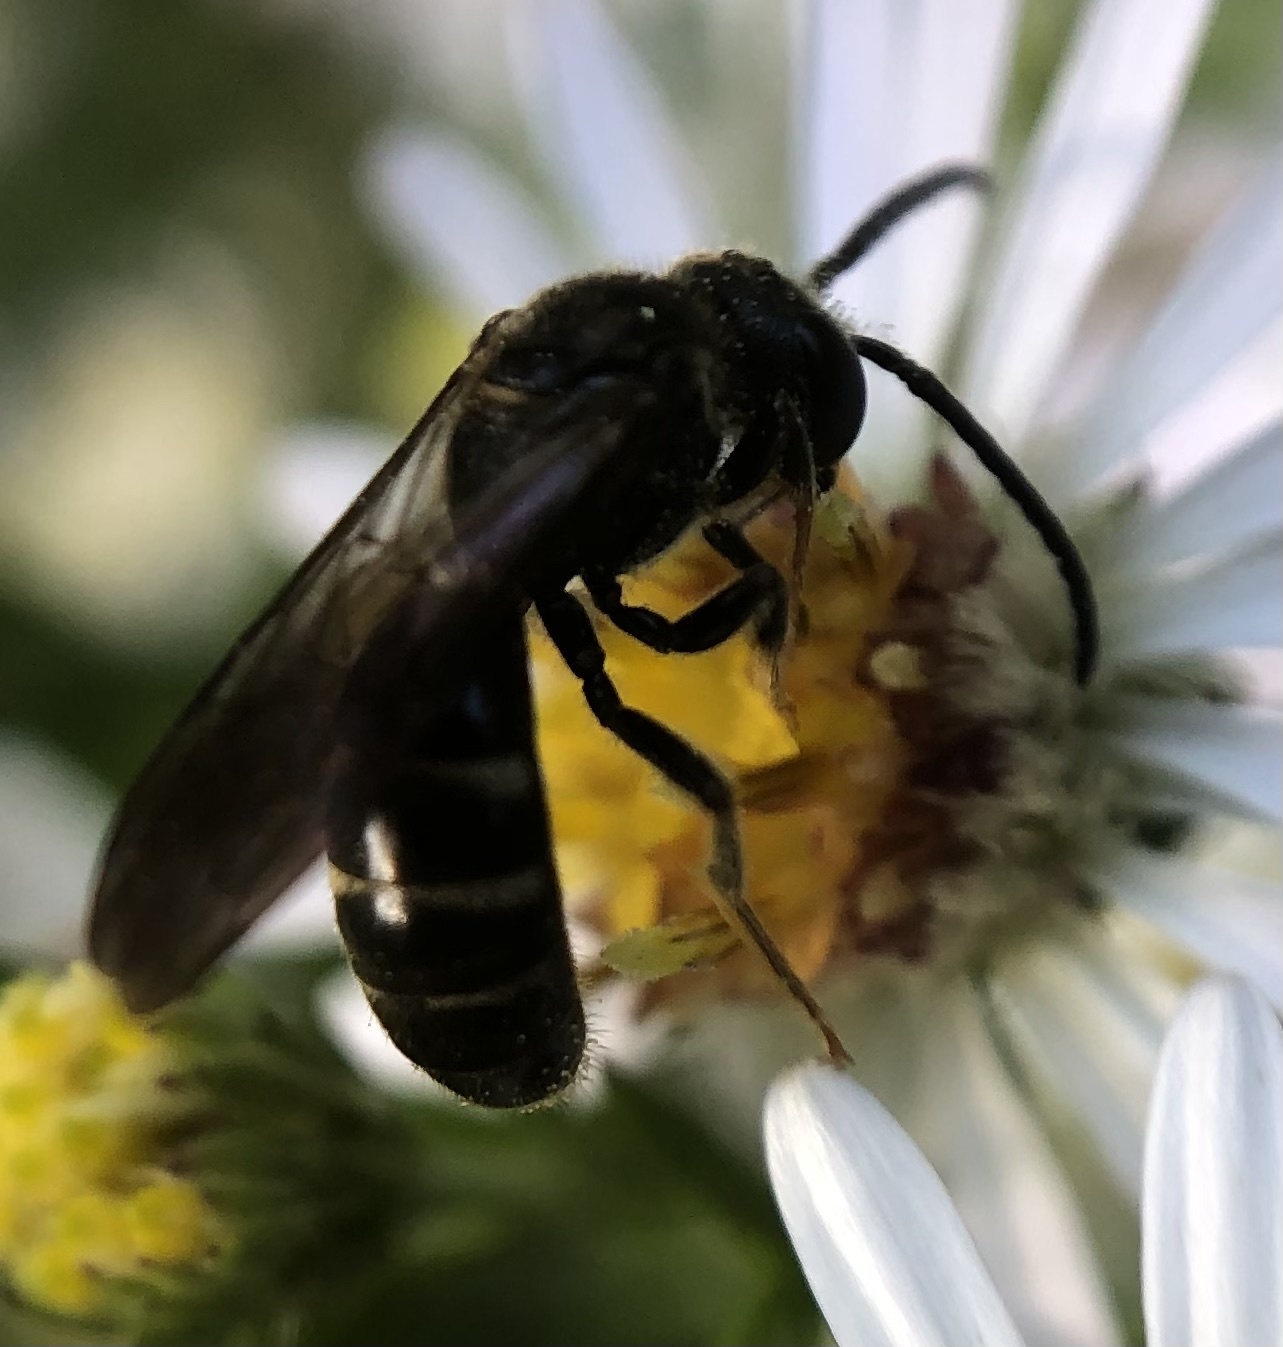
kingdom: Animalia
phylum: Arthropoda
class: Insecta
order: Hymenoptera
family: Halictidae
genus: Lasioglossum
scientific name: Lasioglossum fuscipenne
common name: Brown-winged sweat bee
